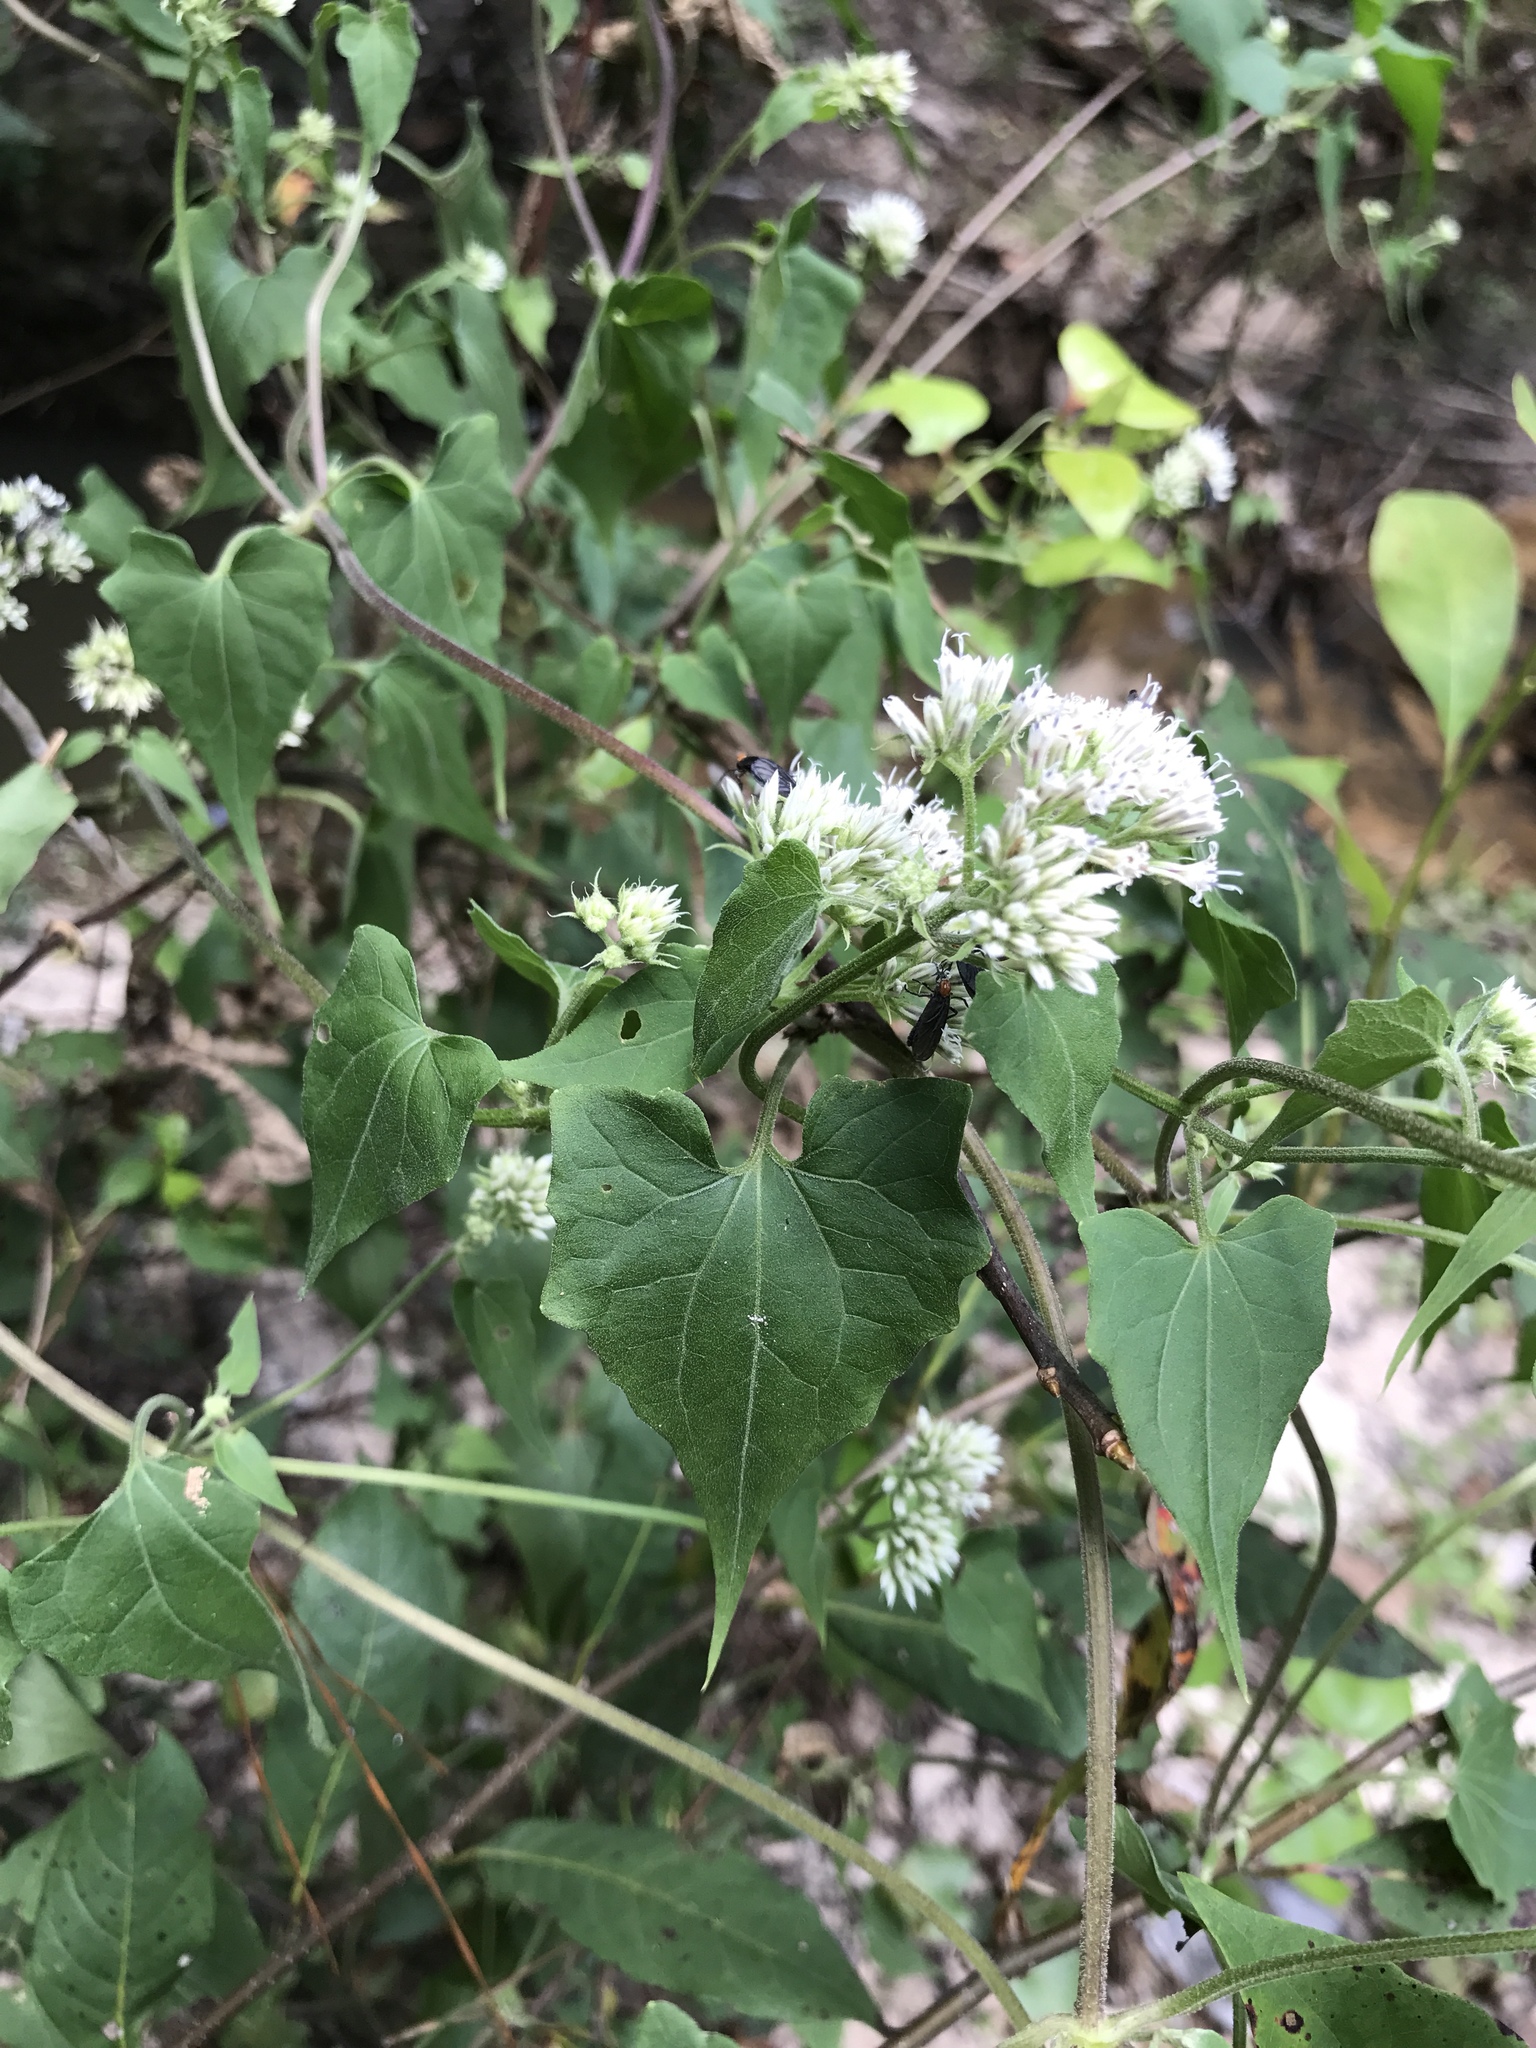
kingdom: Plantae
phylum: Tracheophyta
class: Magnoliopsida
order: Asterales
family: Asteraceae
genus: Mikania
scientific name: Mikania scandens
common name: Climbing hempvine
